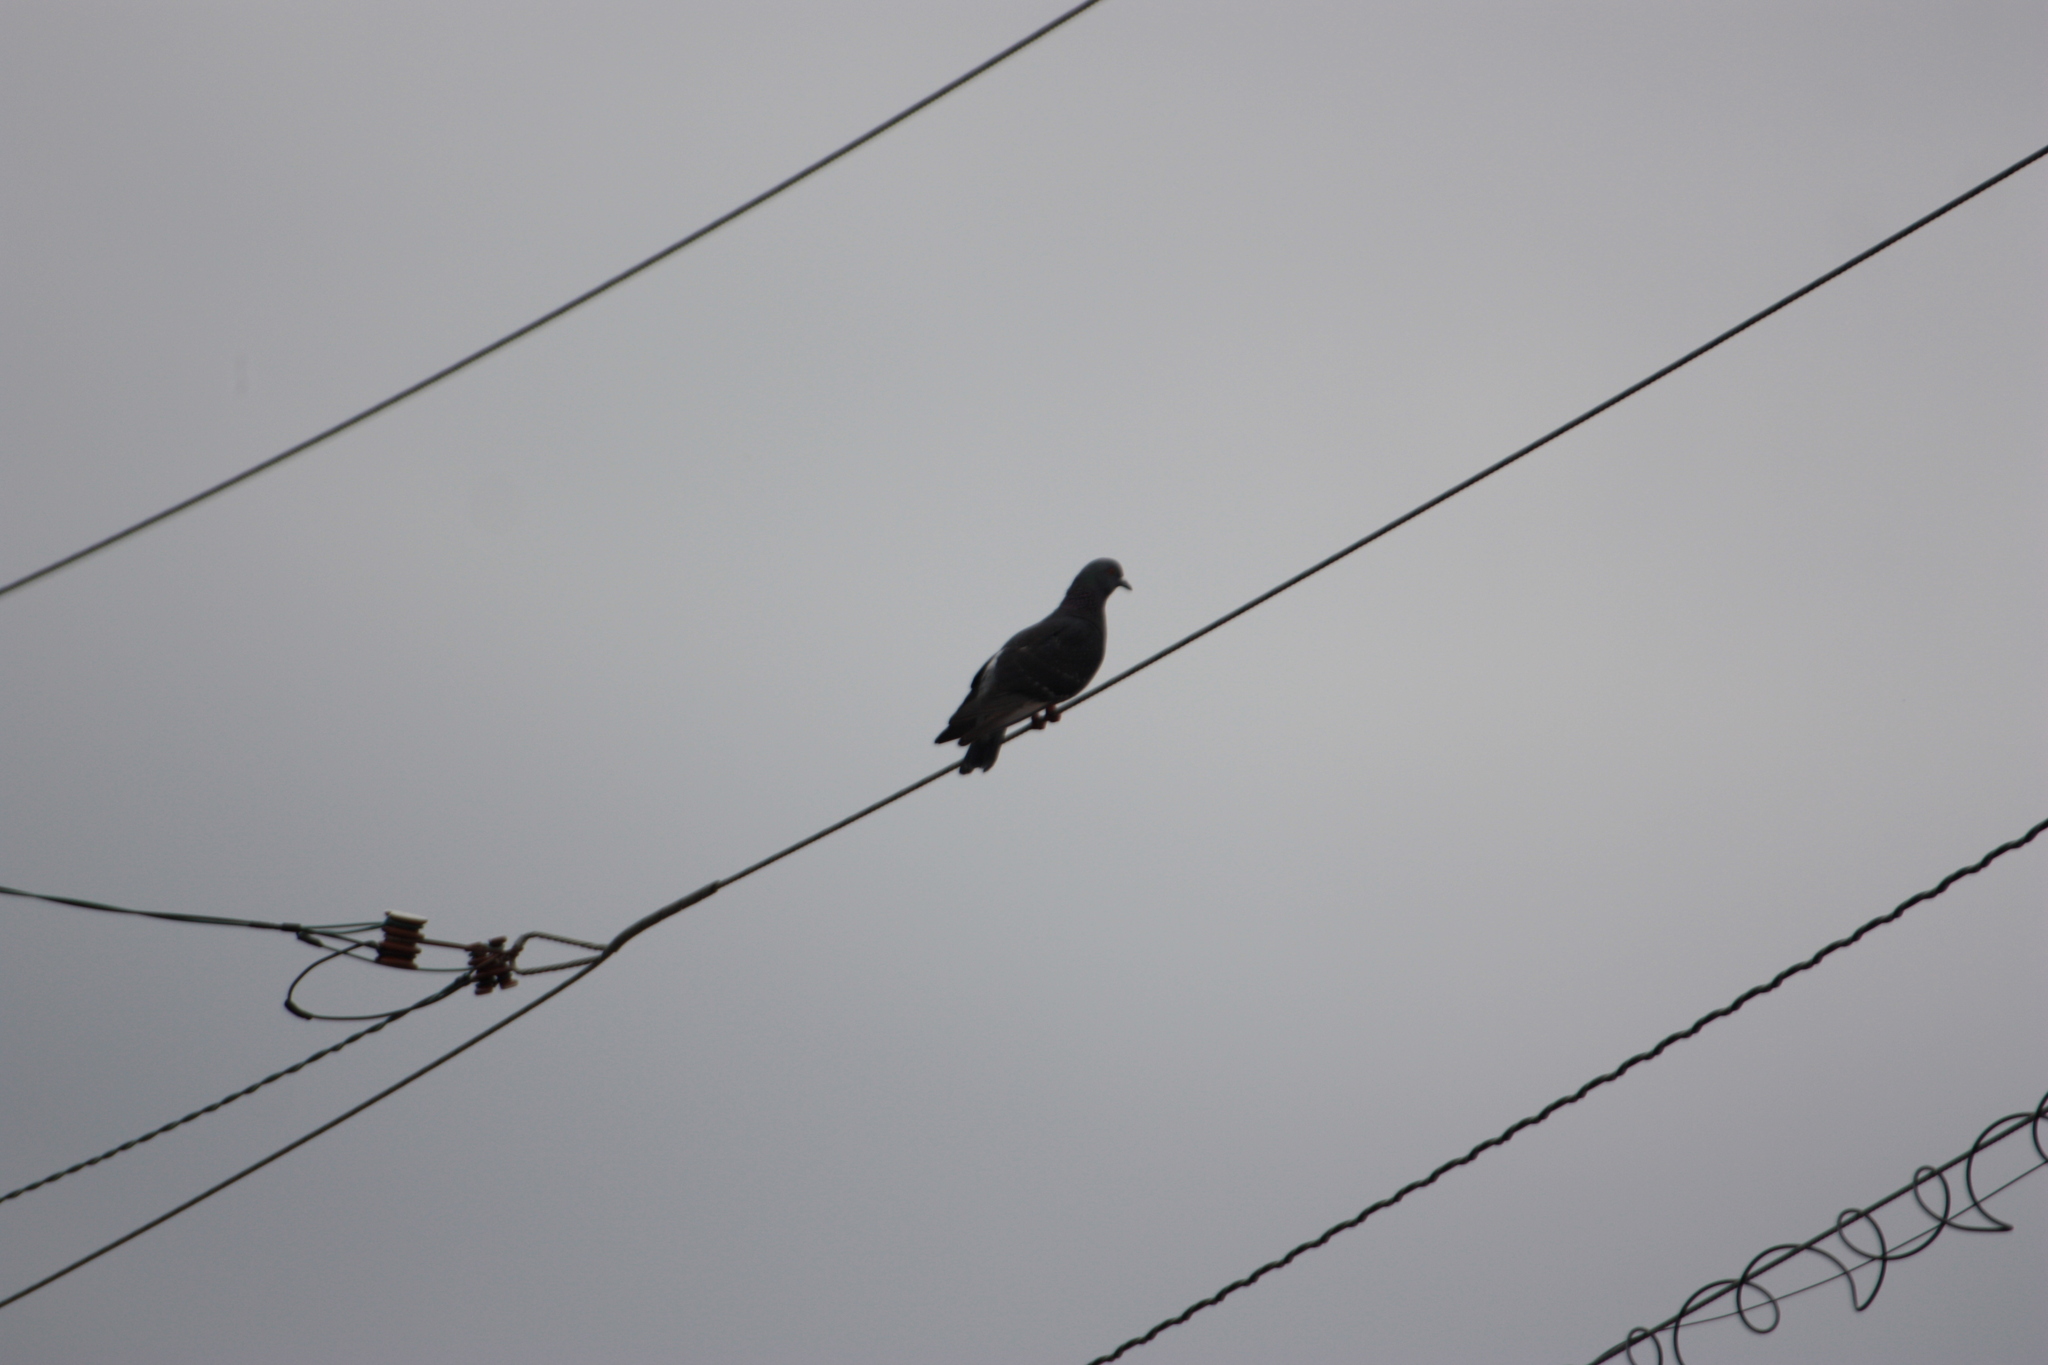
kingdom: Animalia
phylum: Chordata
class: Aves
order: Columbiformes
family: Columbidae
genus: Columba
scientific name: Columba livia
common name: Rock pigeon
